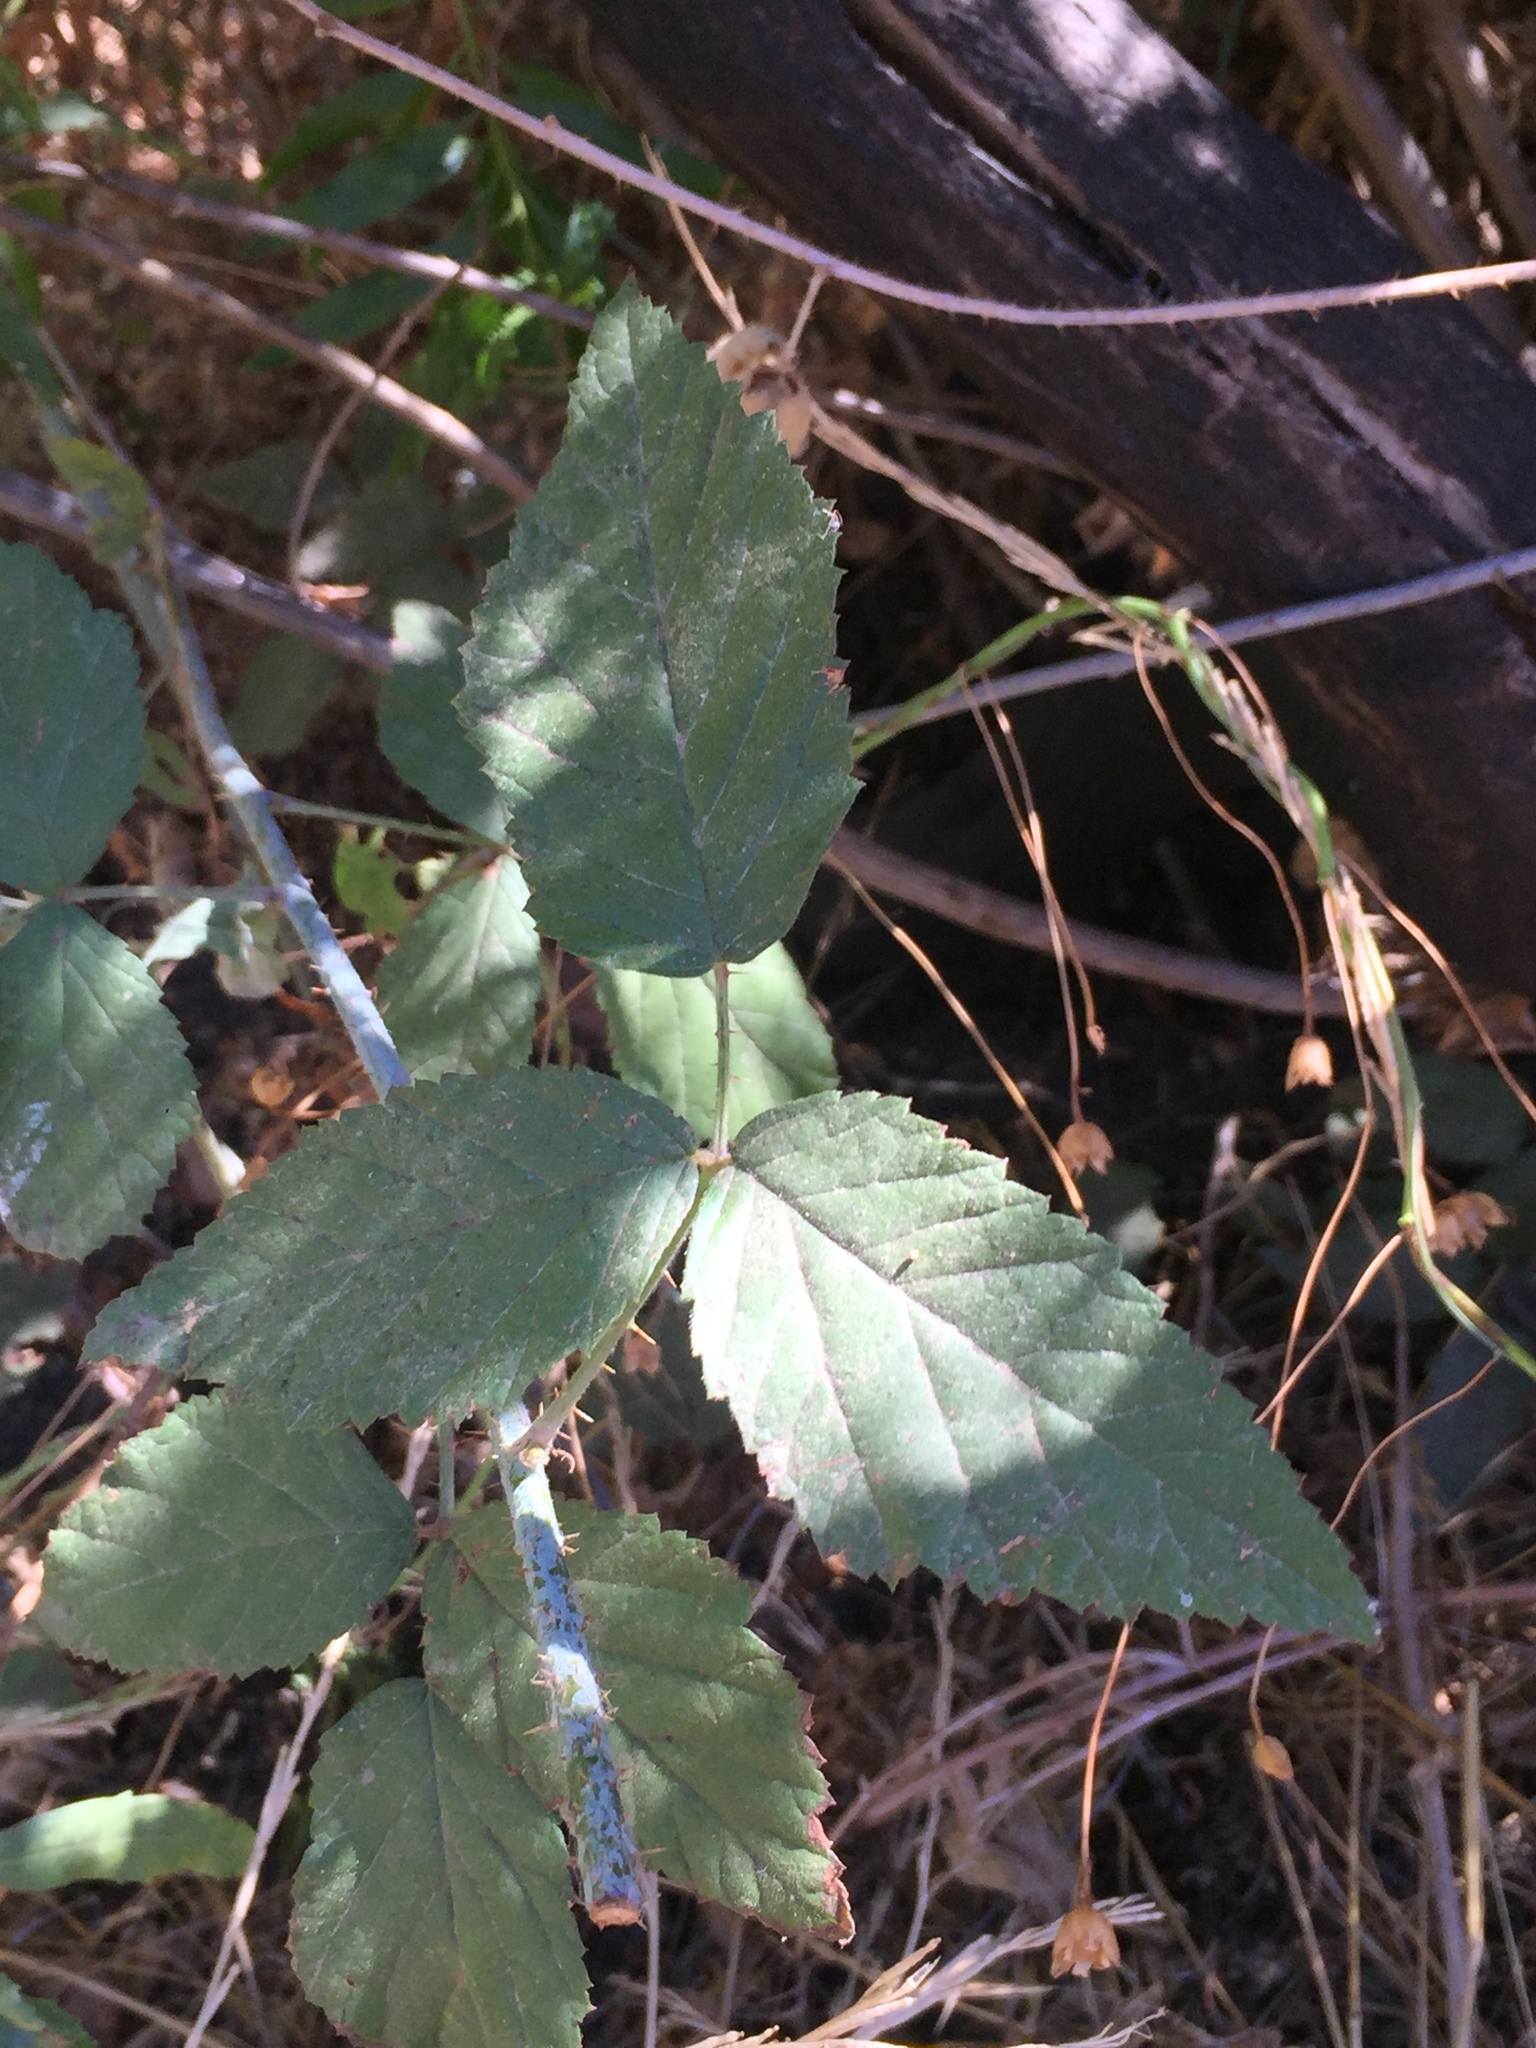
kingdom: Plantae
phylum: Tracheophyta
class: Magnoliopsida
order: Rosales
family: Rosaceae
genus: Rubus
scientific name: Rubus ursinus
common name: Pacific blackberry
